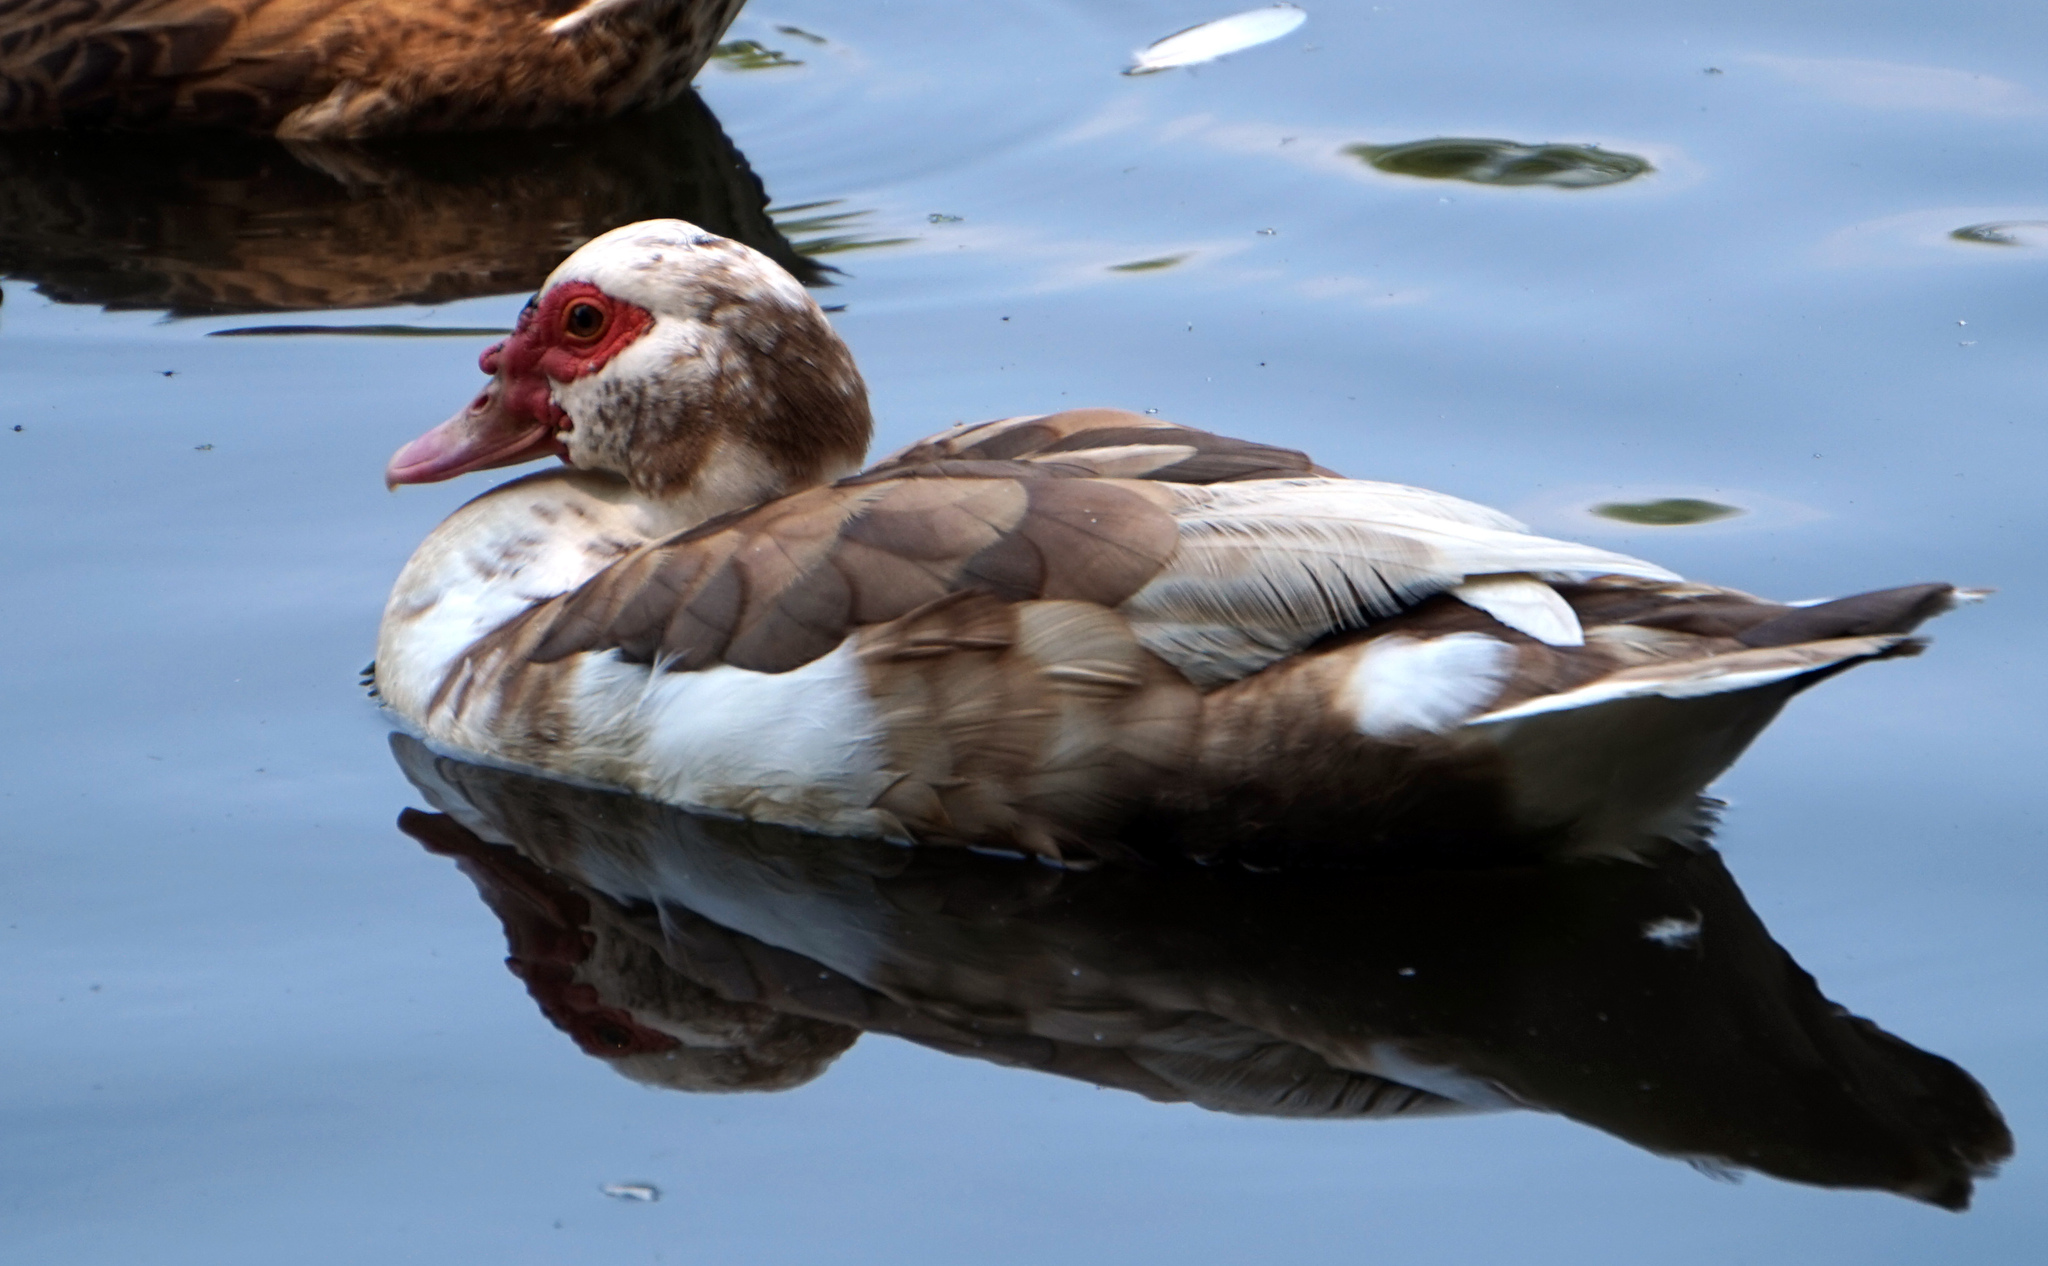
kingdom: Animalia
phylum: Chordata
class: Aves
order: Anseriformes
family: Anatidae
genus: Cairina
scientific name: Cairina moschata
